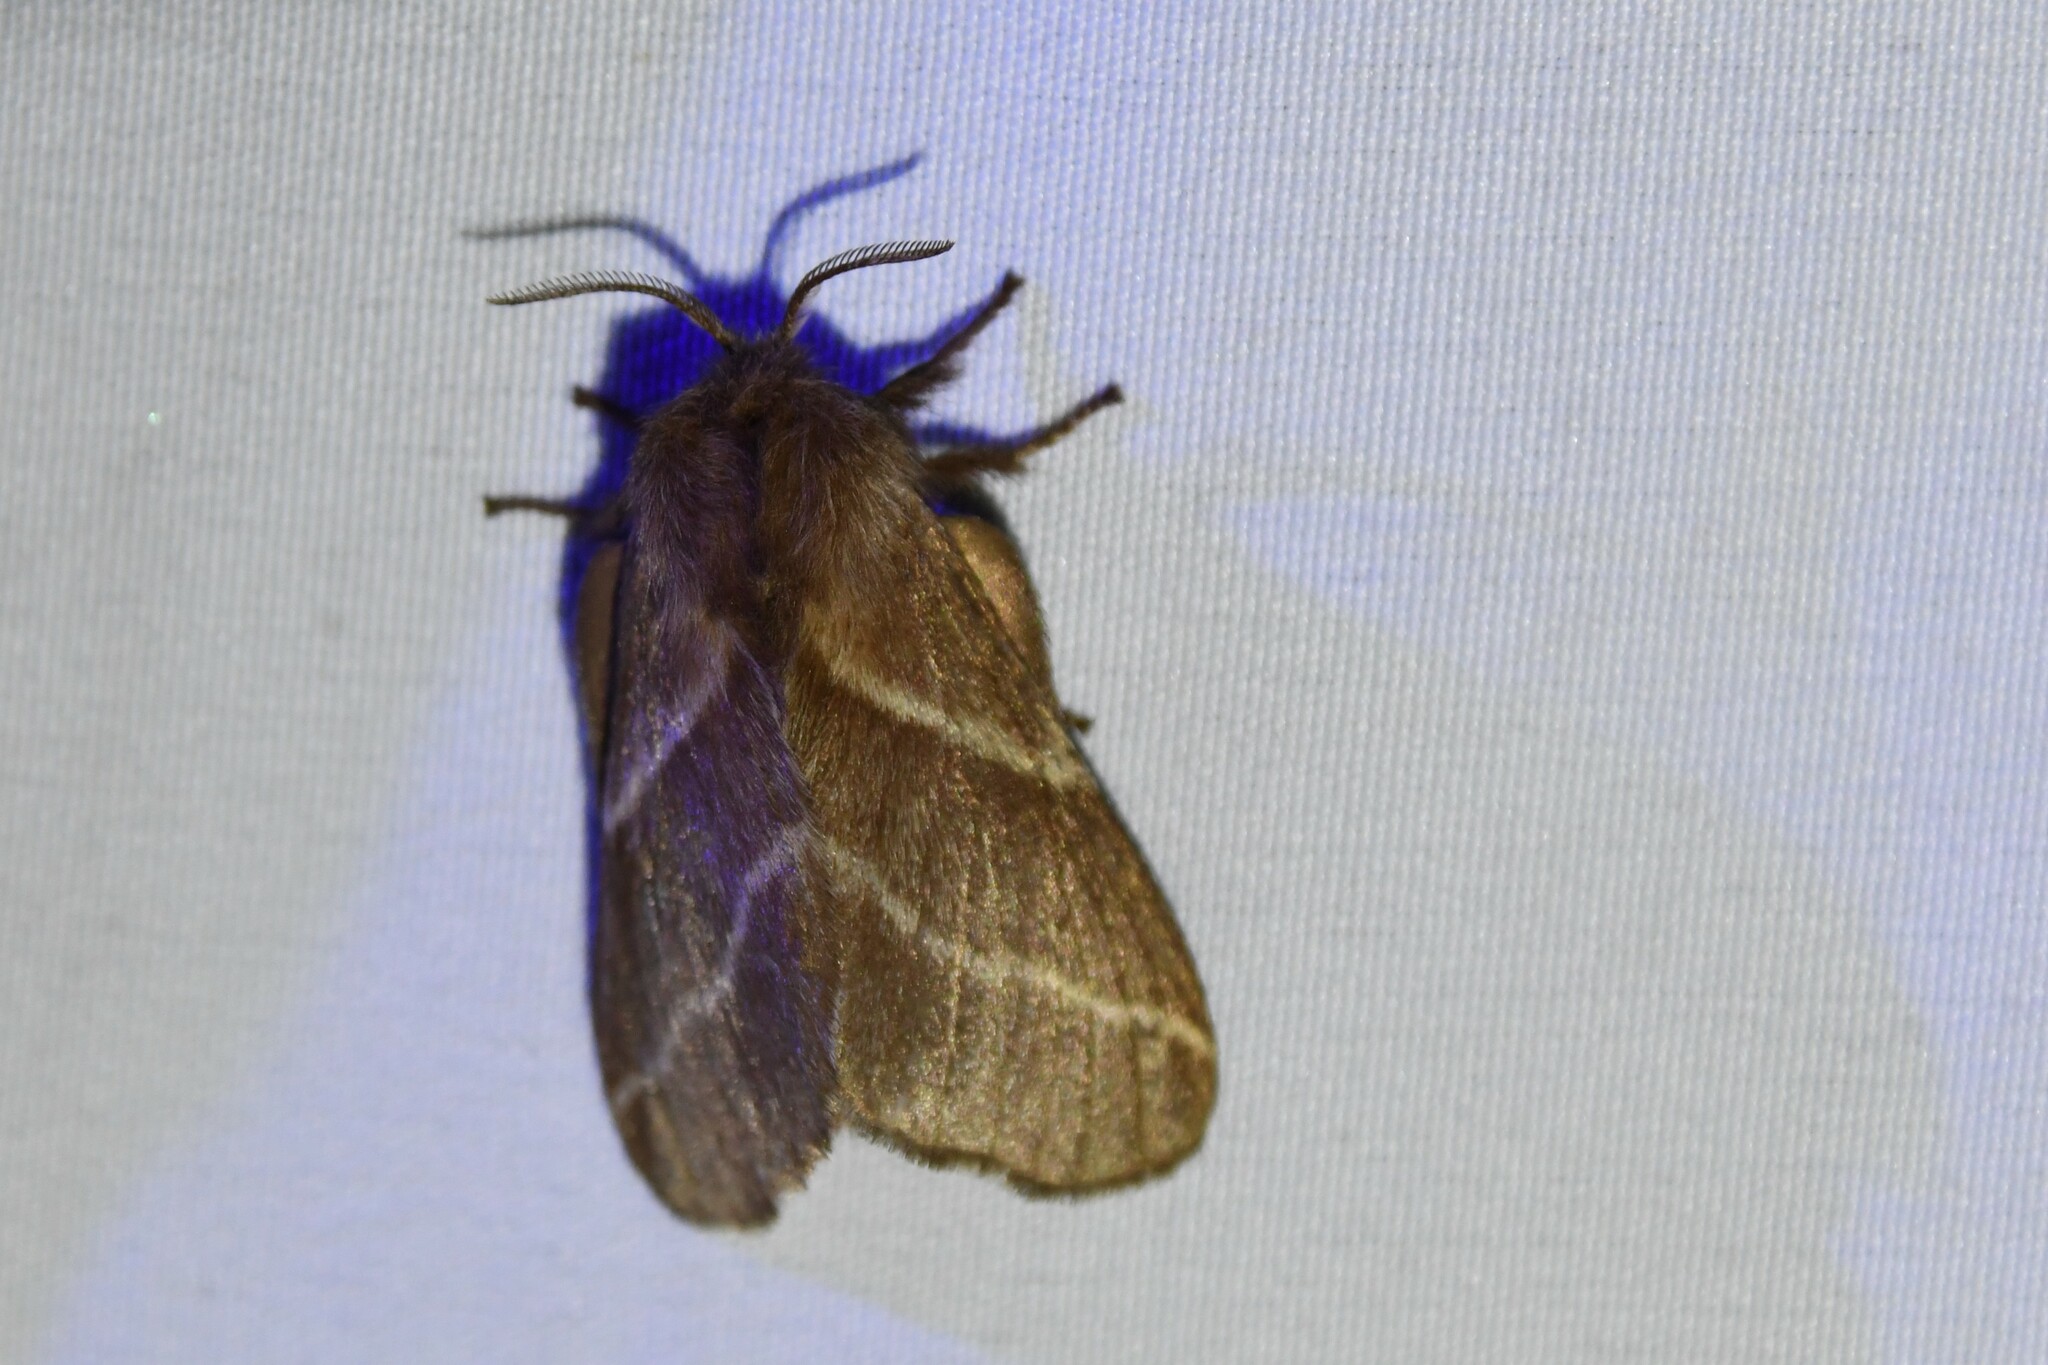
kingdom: Animalia
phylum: Arthropoda
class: Insecta
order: Lepidoptera
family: Lasiocampidae
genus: Malacosoma
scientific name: Malacosoma americana
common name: Eastern tent caterpillar moth
